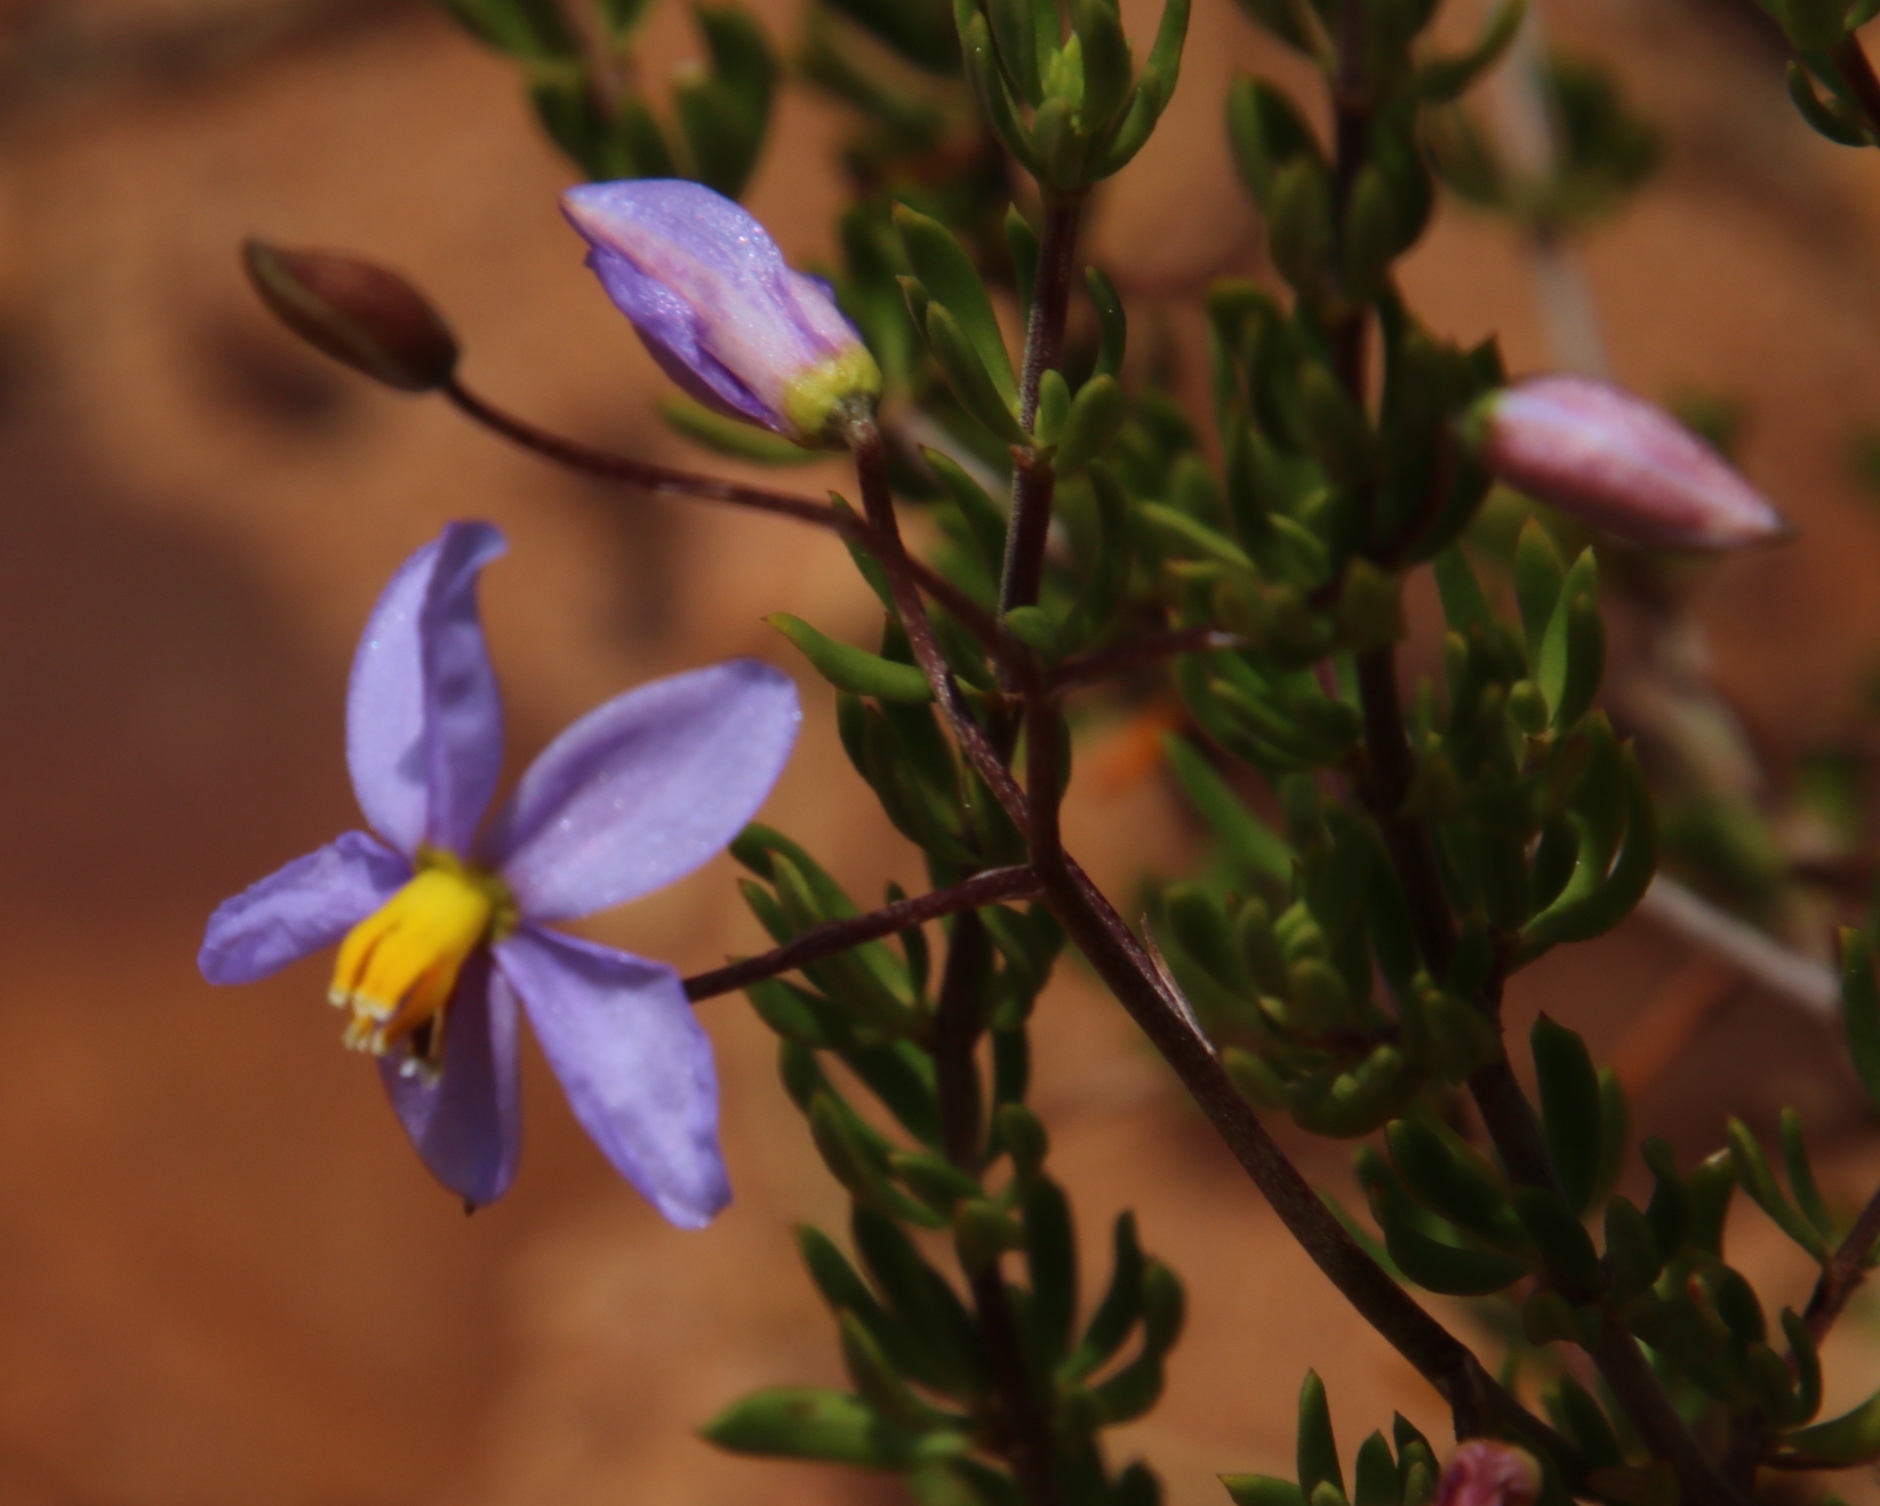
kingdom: Plantae
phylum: Tracheophyta
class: Liliopsida
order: Asparagales
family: Tecophilaeaceae
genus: Cyanella
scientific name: Cyanella hyacinthoides
